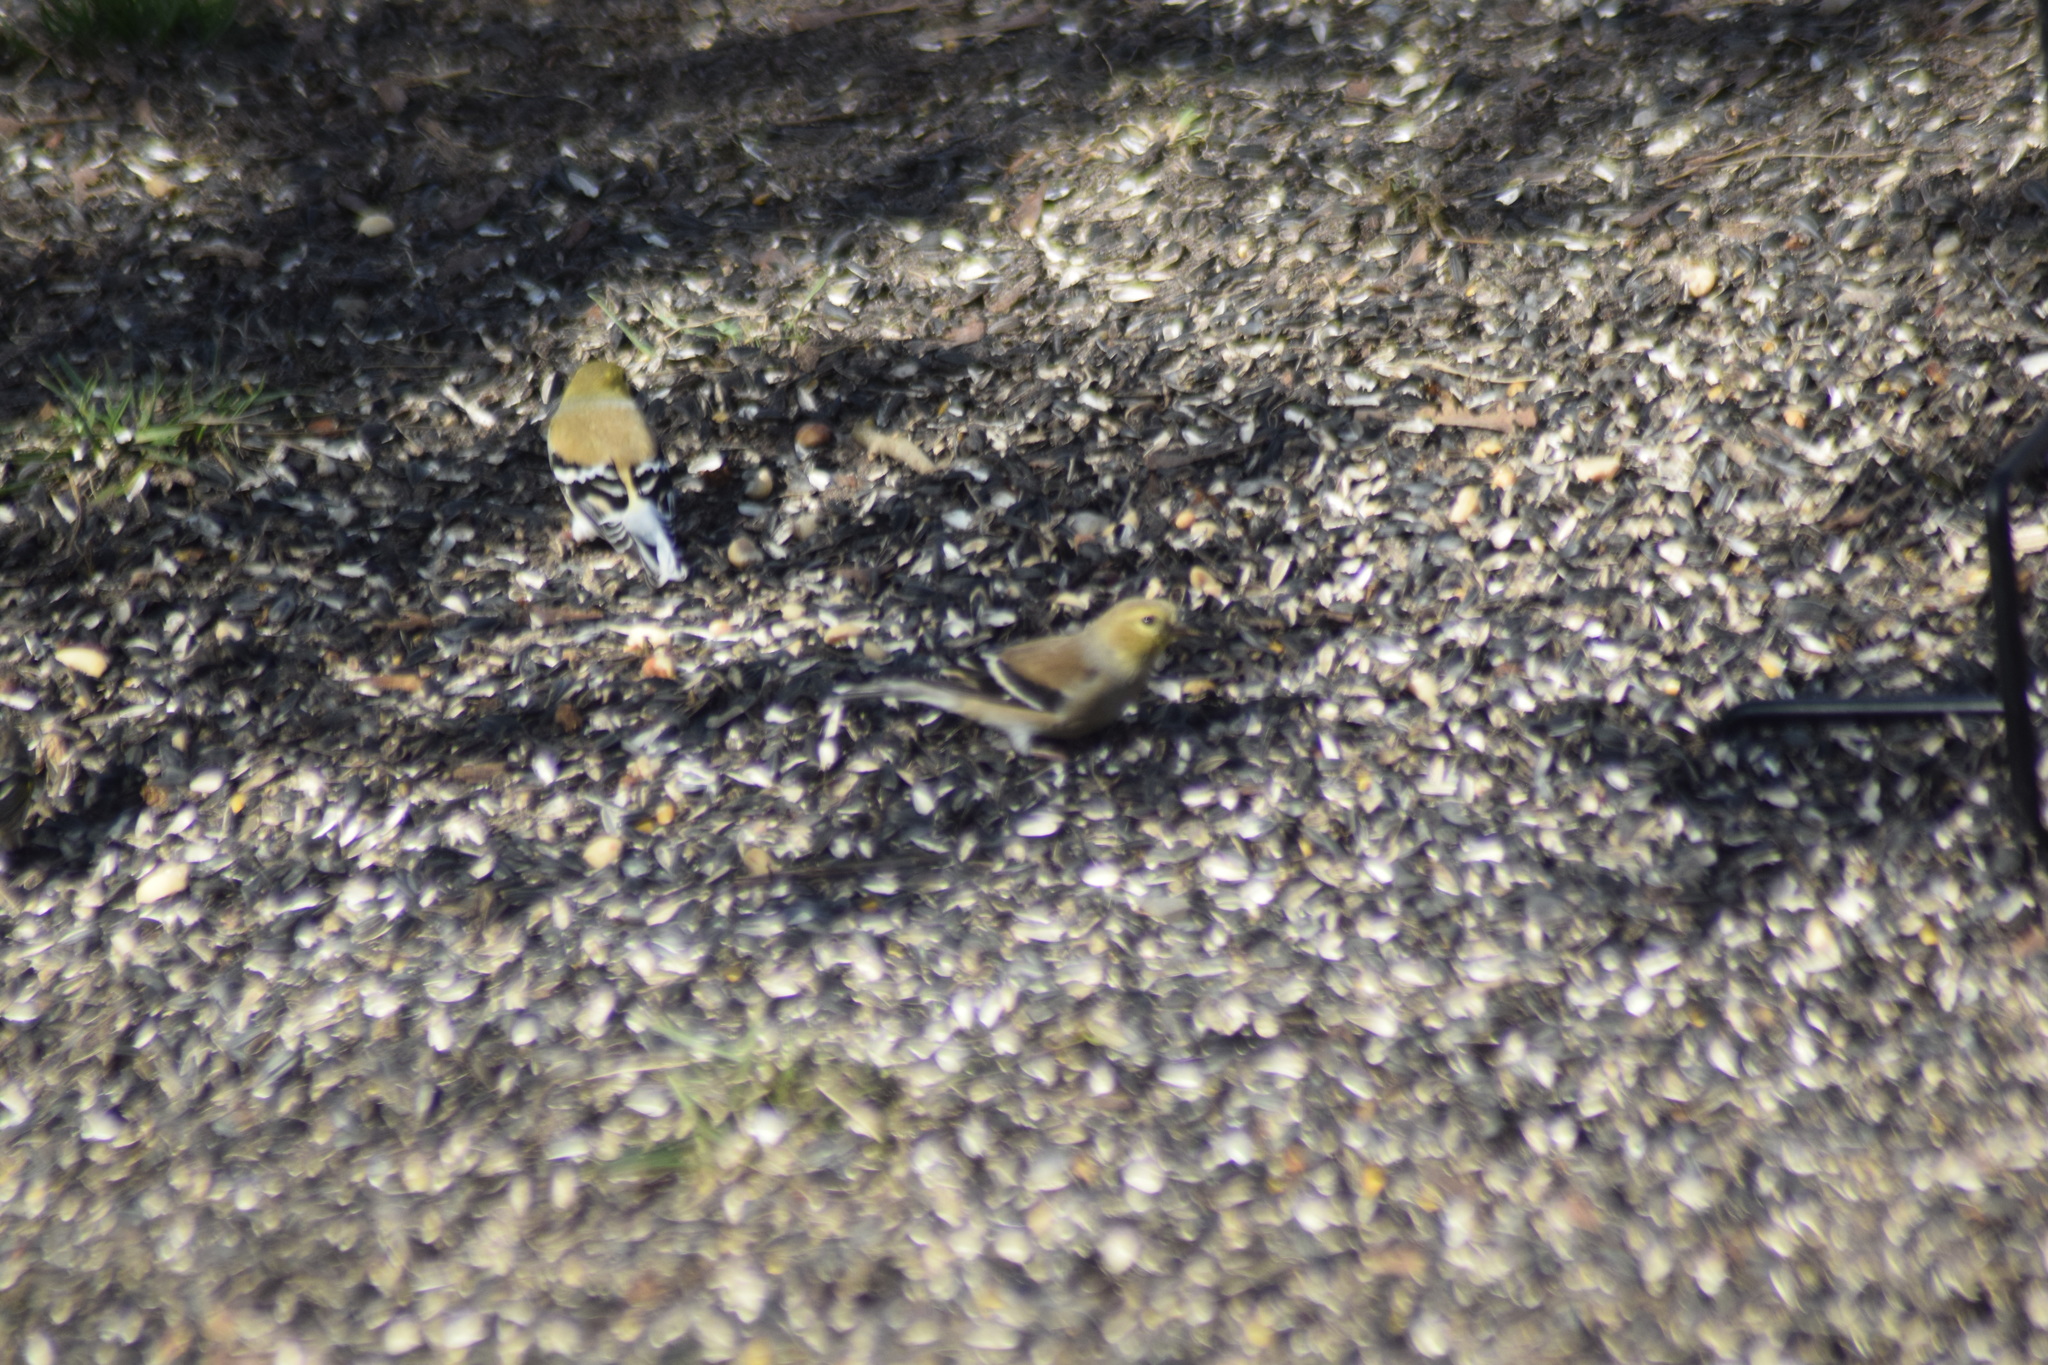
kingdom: Animalia
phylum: Chordata
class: Aves
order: Passeriformes
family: Fringillidae
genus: Spinus
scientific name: Spinus tristis
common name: American goldfinch
